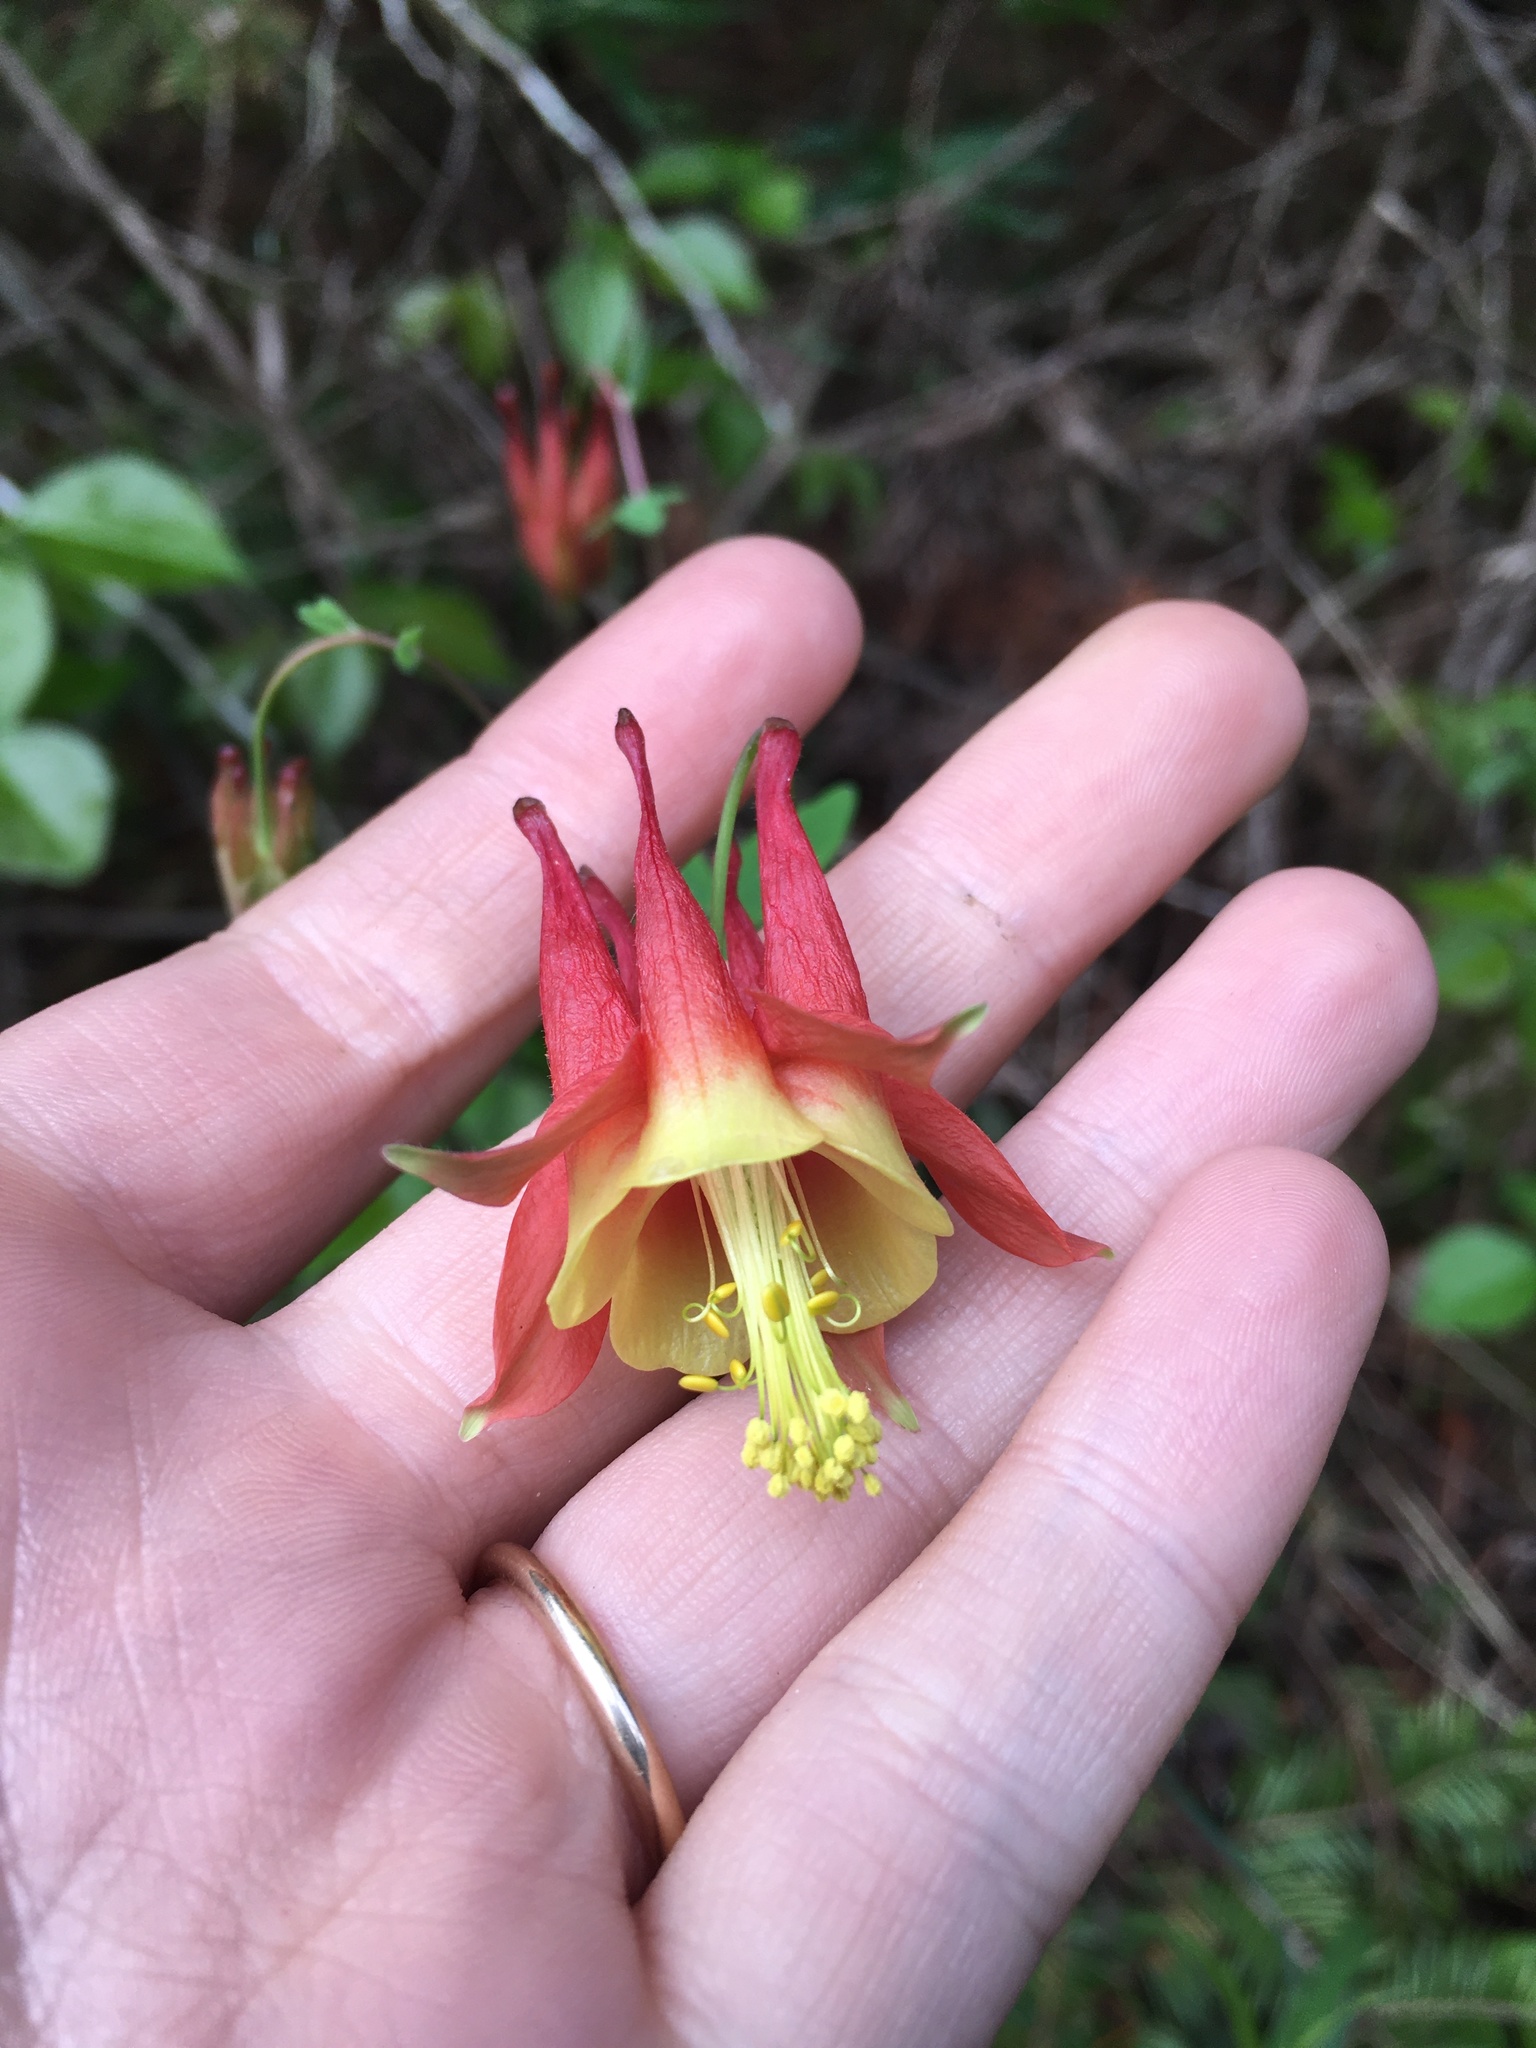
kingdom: Plantae
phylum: Tracheophyta
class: Magnoliopsida
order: Ranunculales
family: Ranunculaceae
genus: Aquilegia
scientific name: Aquilegia canadensis
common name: American columbine
